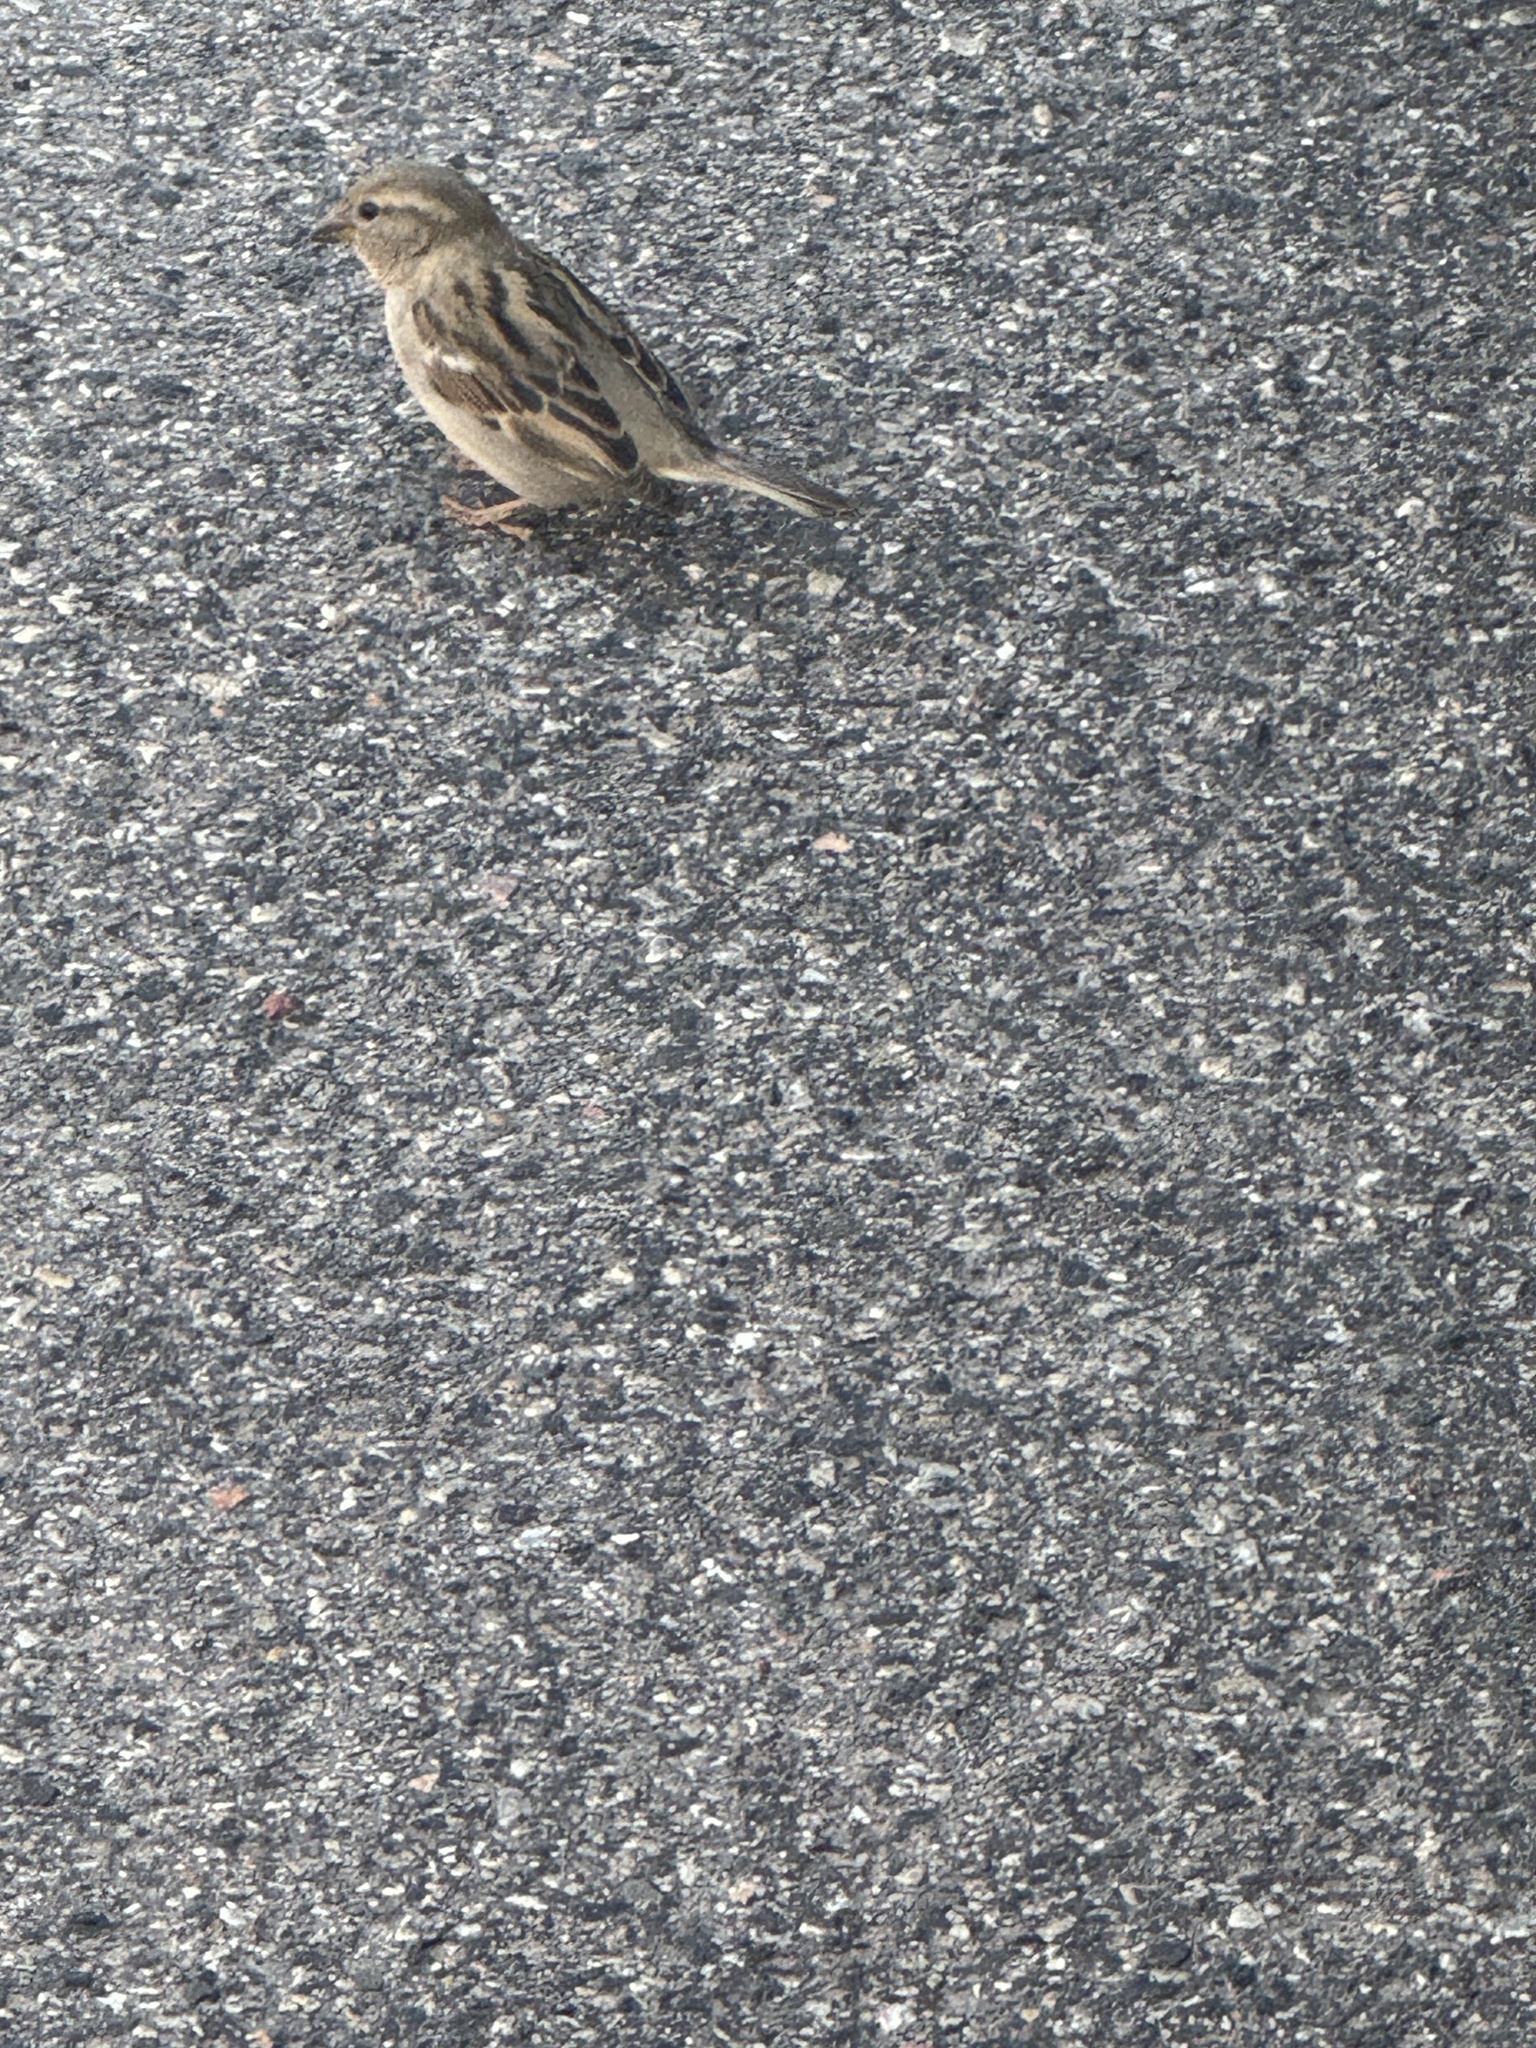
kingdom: Animalia
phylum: Chordata
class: Aves
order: Passeriformes
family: Passeridae
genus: Passer
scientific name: Passer domesticus
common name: House sparrow
